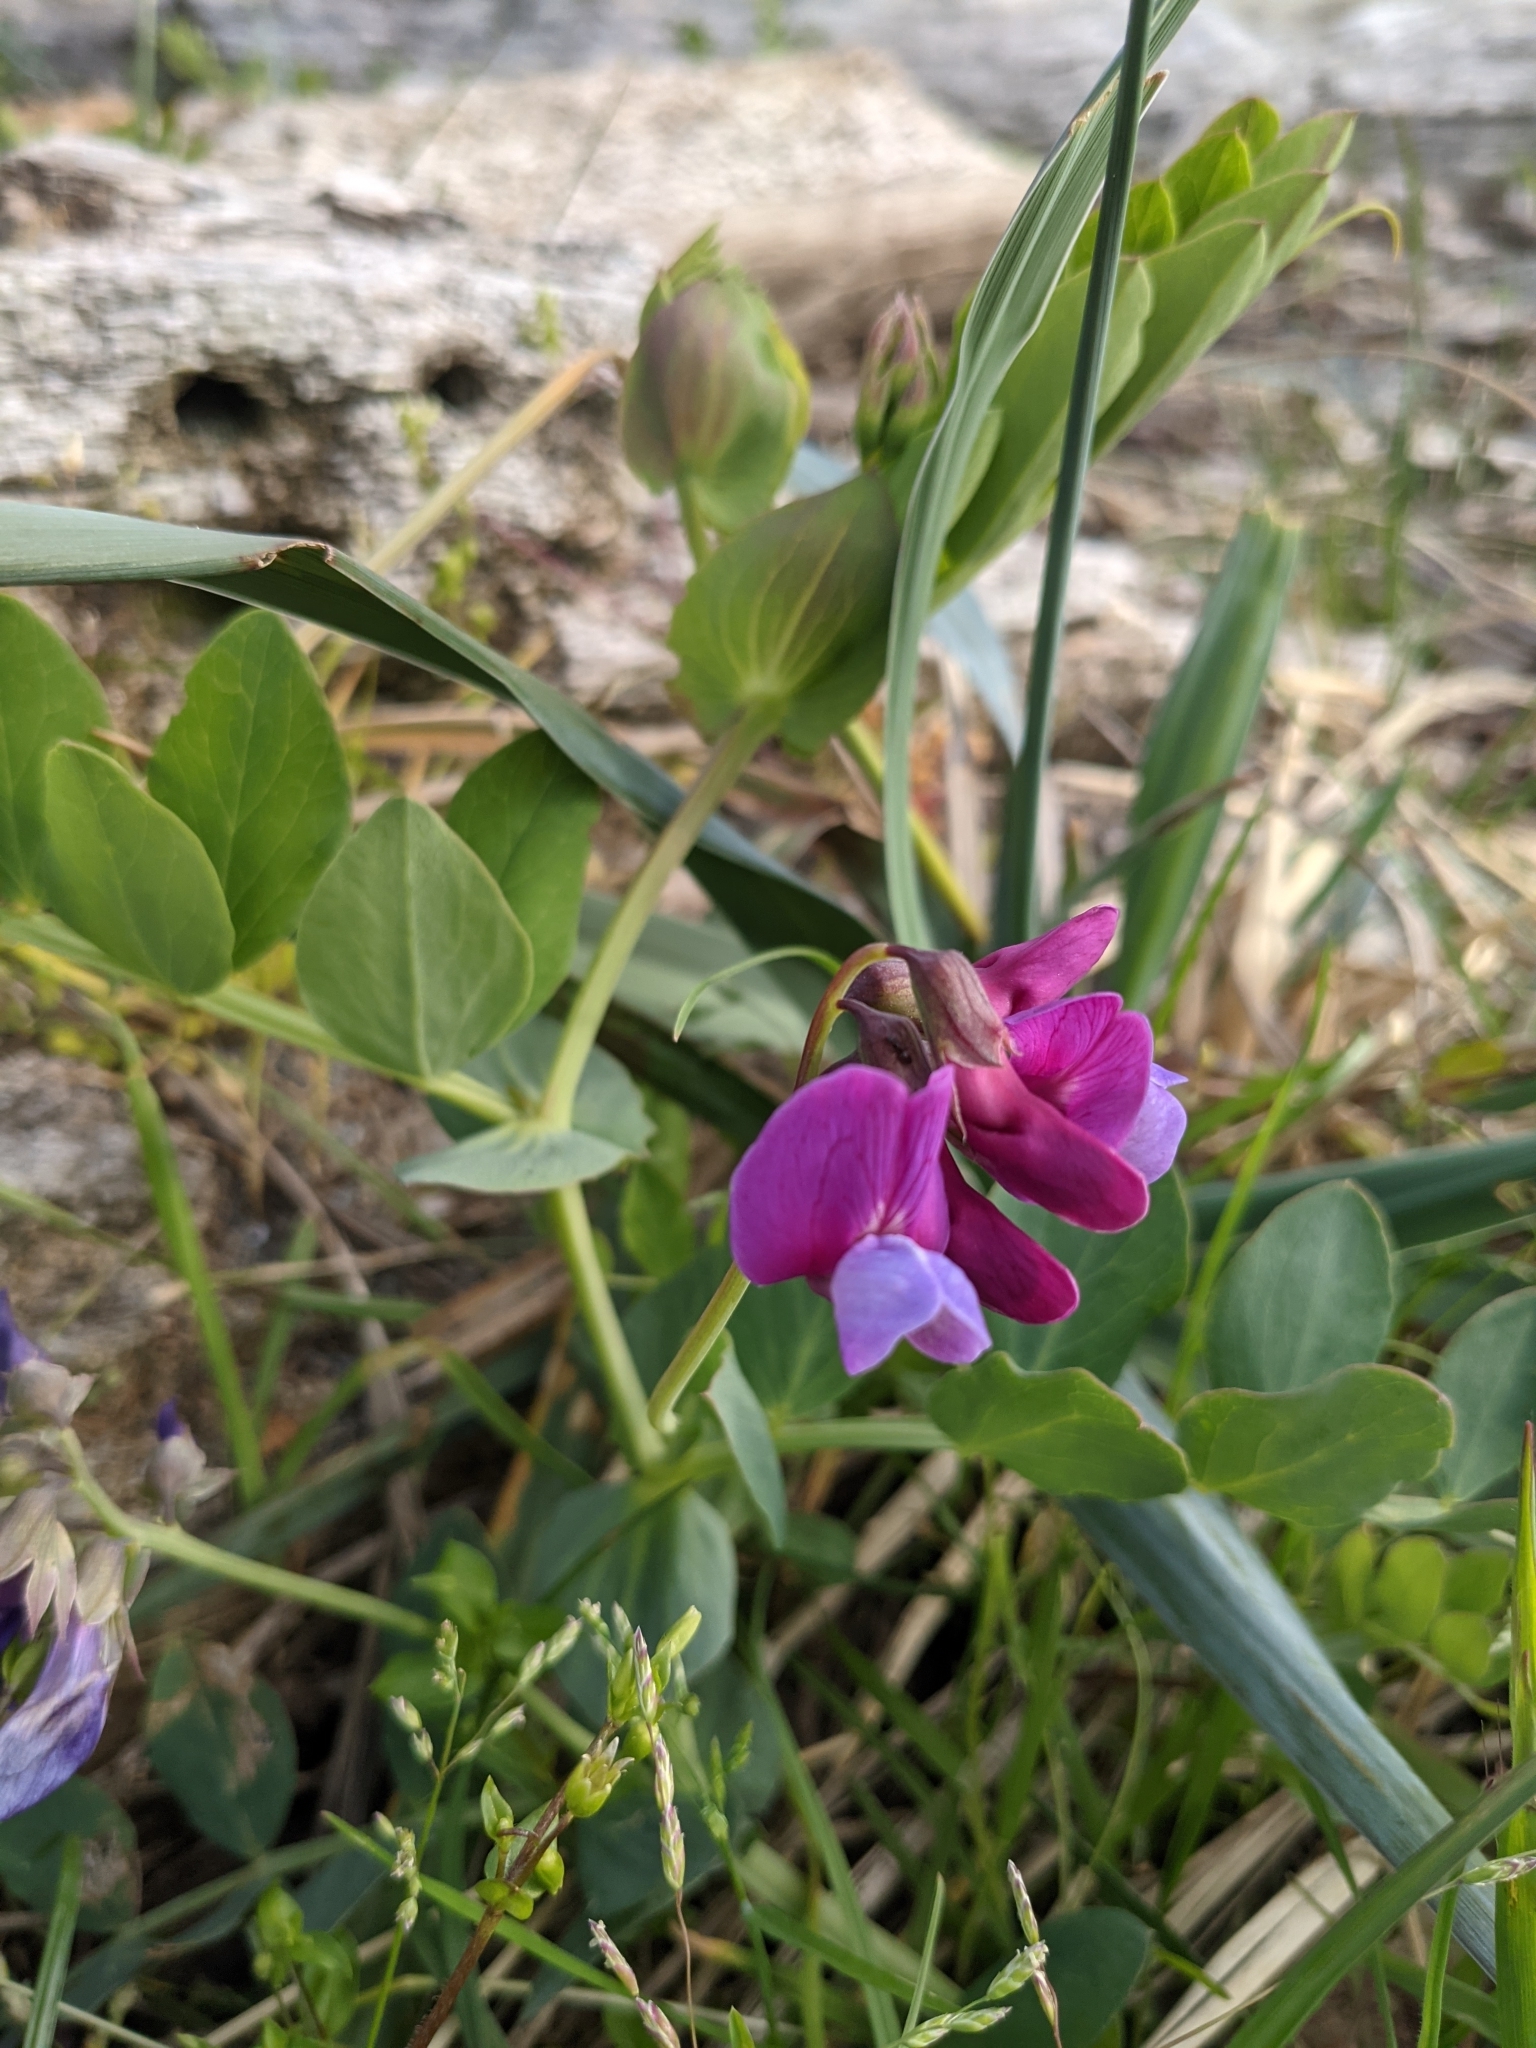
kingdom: Plantae
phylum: Tracheophyta
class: Magnoliopsida
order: Fabales
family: Fabaceae
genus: Lathyrus
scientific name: Lathyrus japonicus
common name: Sea pea
